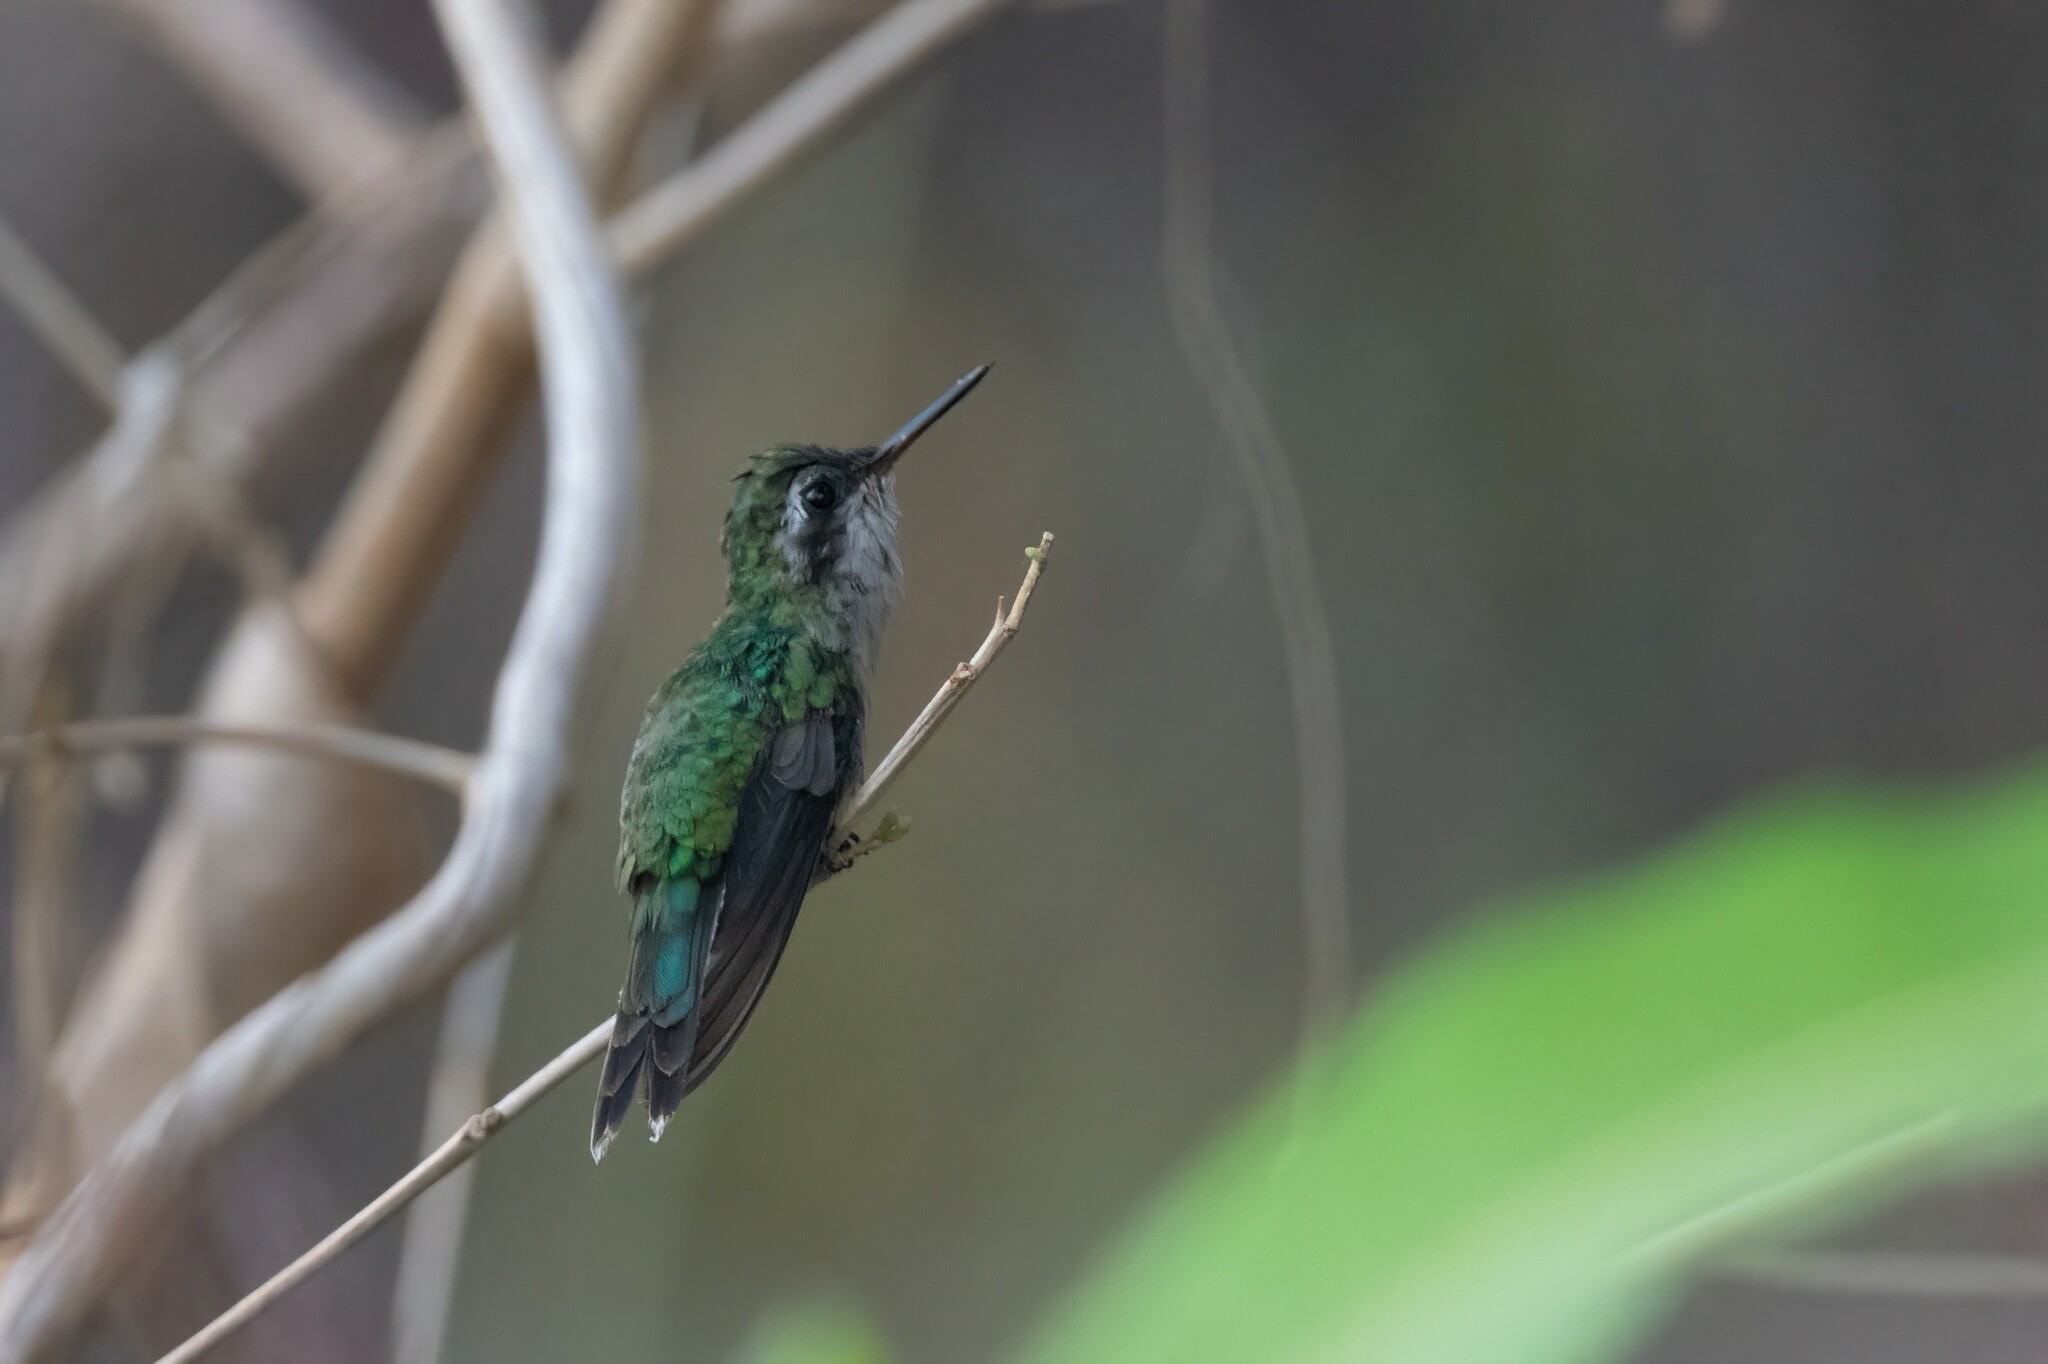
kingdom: Animalia
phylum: Chordata
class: Aves
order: Apodiformes
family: Trochilidae
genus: Cynanthus
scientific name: Cynanthus auriceps
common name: Golden-crowned emerald
